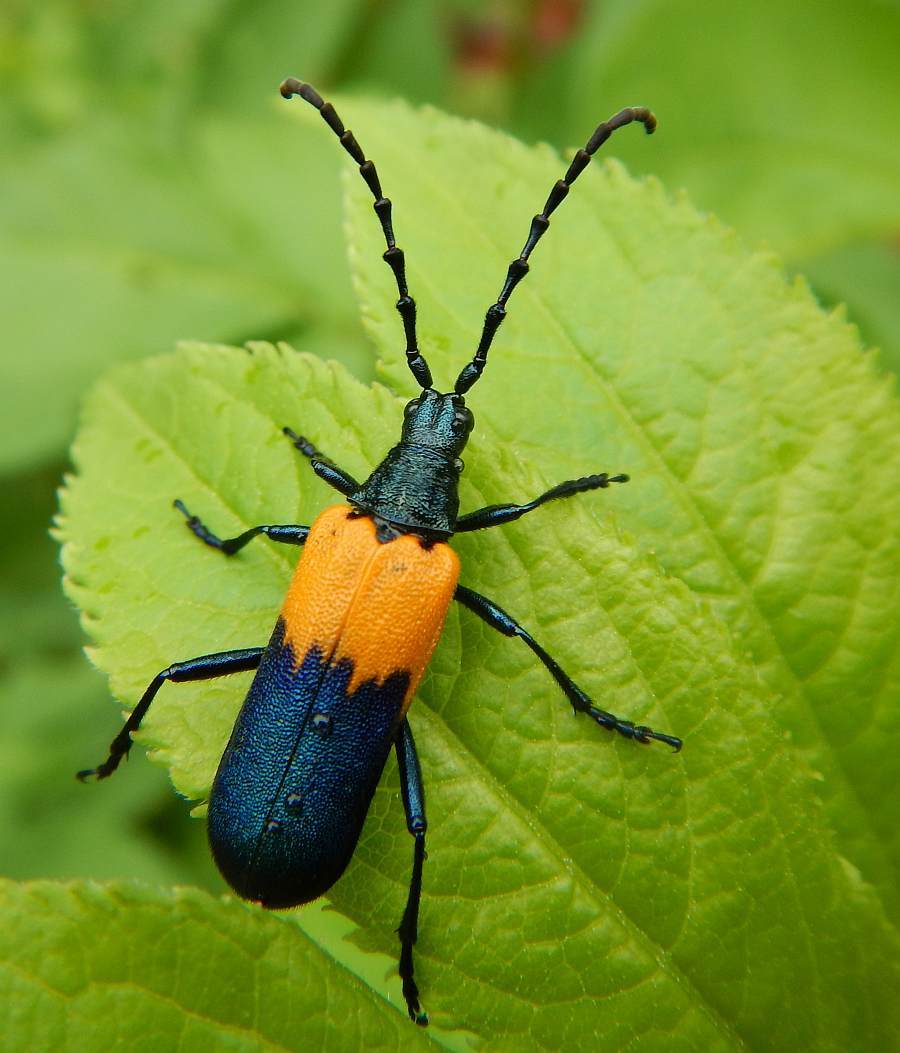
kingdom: Animalia
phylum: Arthropoda
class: Insecta
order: Coleoptera
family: Cerambycidae
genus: Desmocerus
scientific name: Desmocerus palliatus
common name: Eastern elderberry borer
